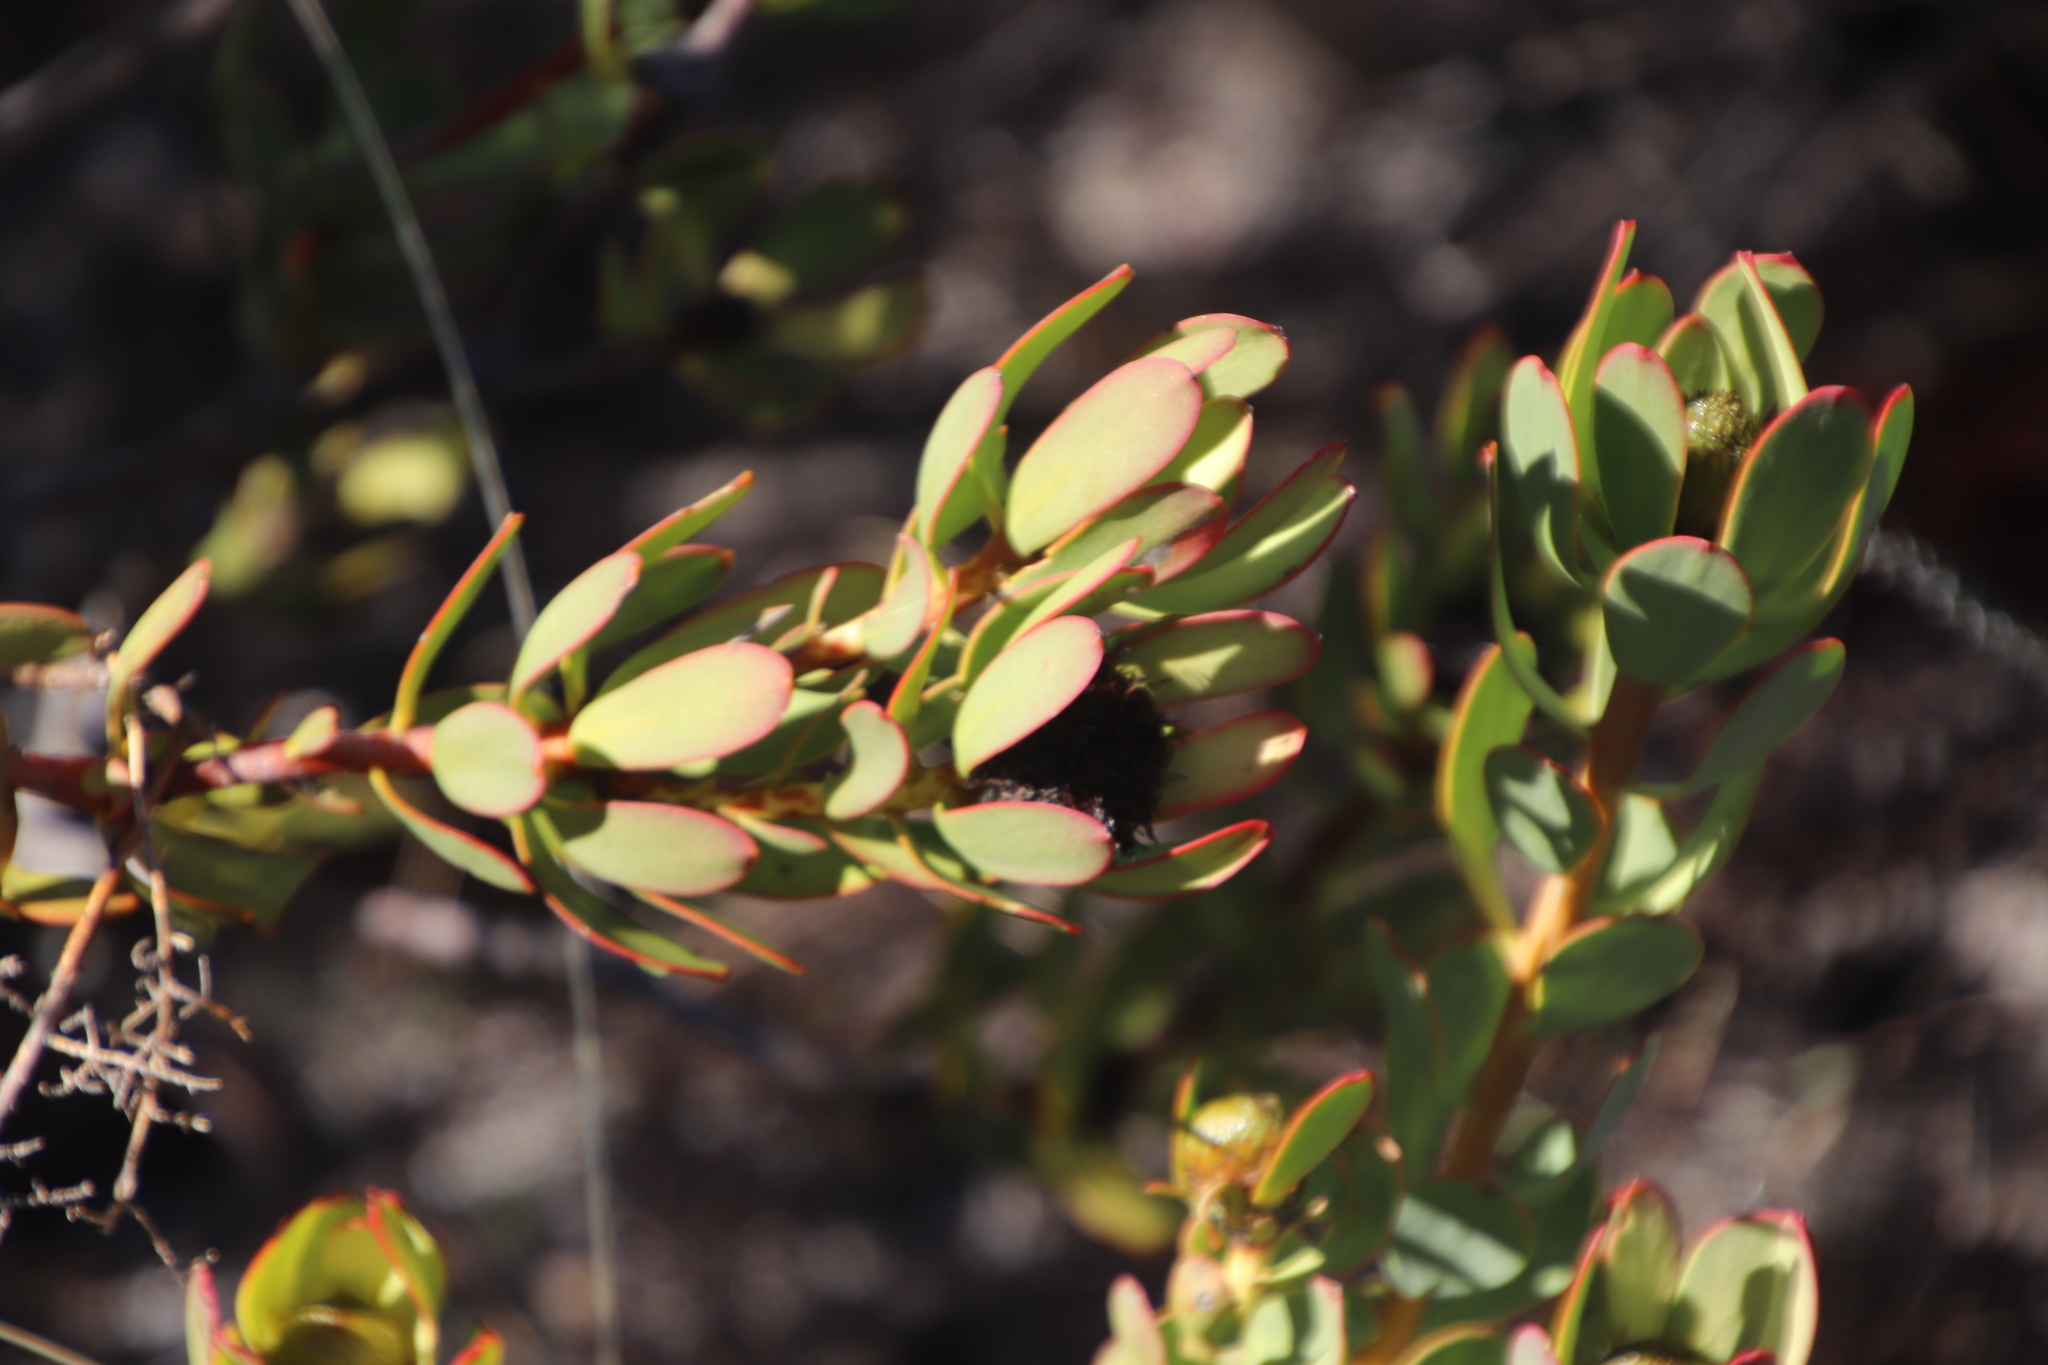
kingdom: Plantae
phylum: Tracheophyta
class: Magnoliopsida
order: Proteales
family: Proteaceae
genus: Leucadendron
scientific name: Leucadendron arcuatum
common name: Red-edge conebush
